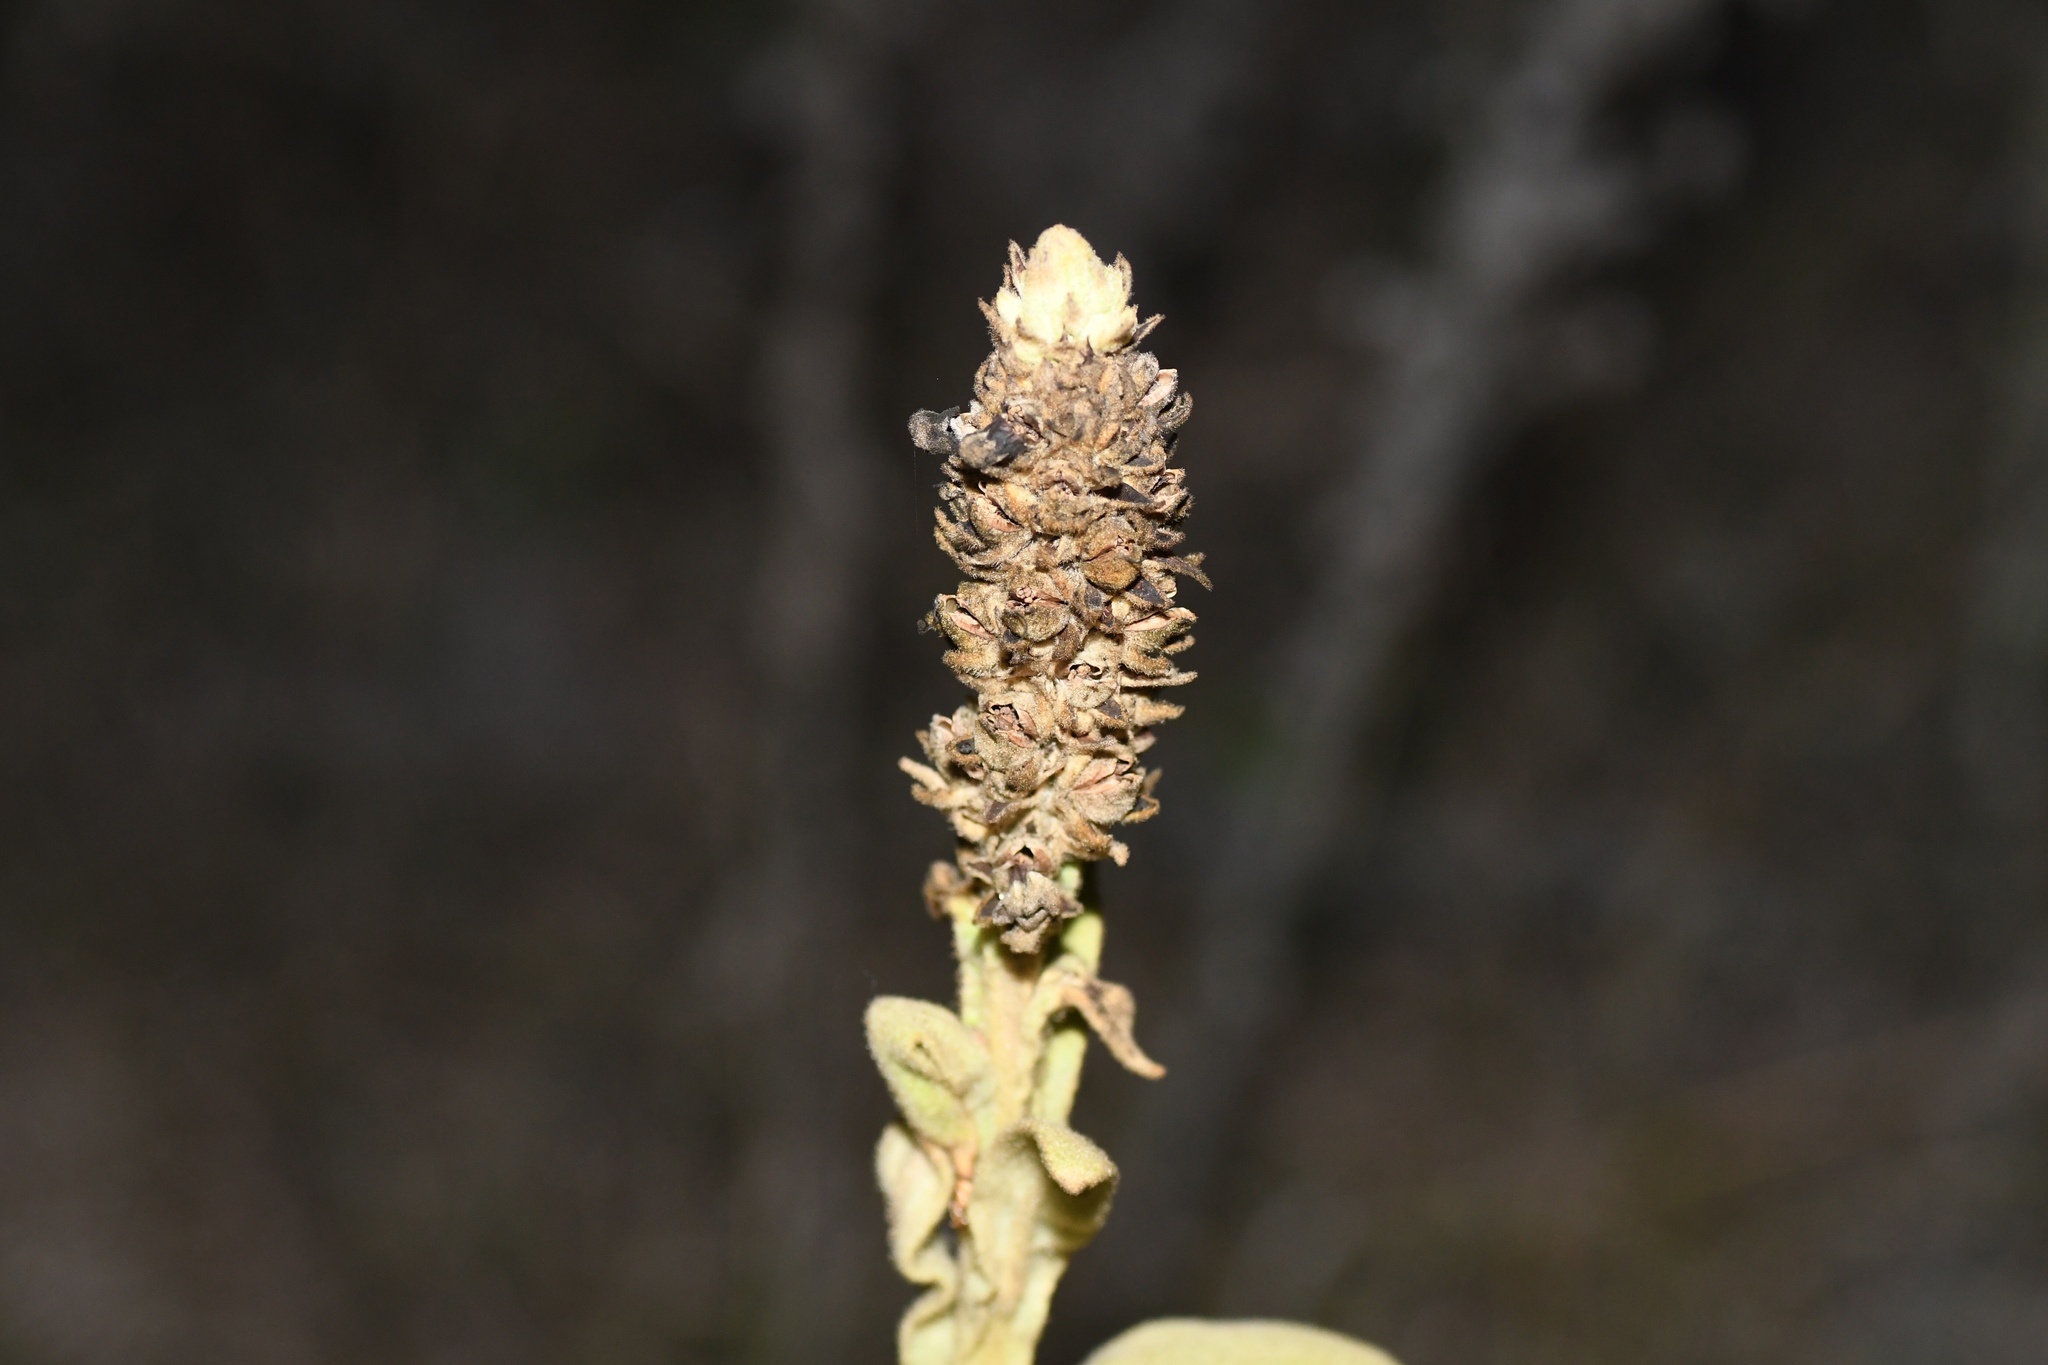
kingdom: Plantae
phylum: Tracheophyta
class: Magnoliopsida
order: Lamiales
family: Scrophulariaceae
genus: Verbascum
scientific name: Verbascum thapsus
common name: Common mullein
